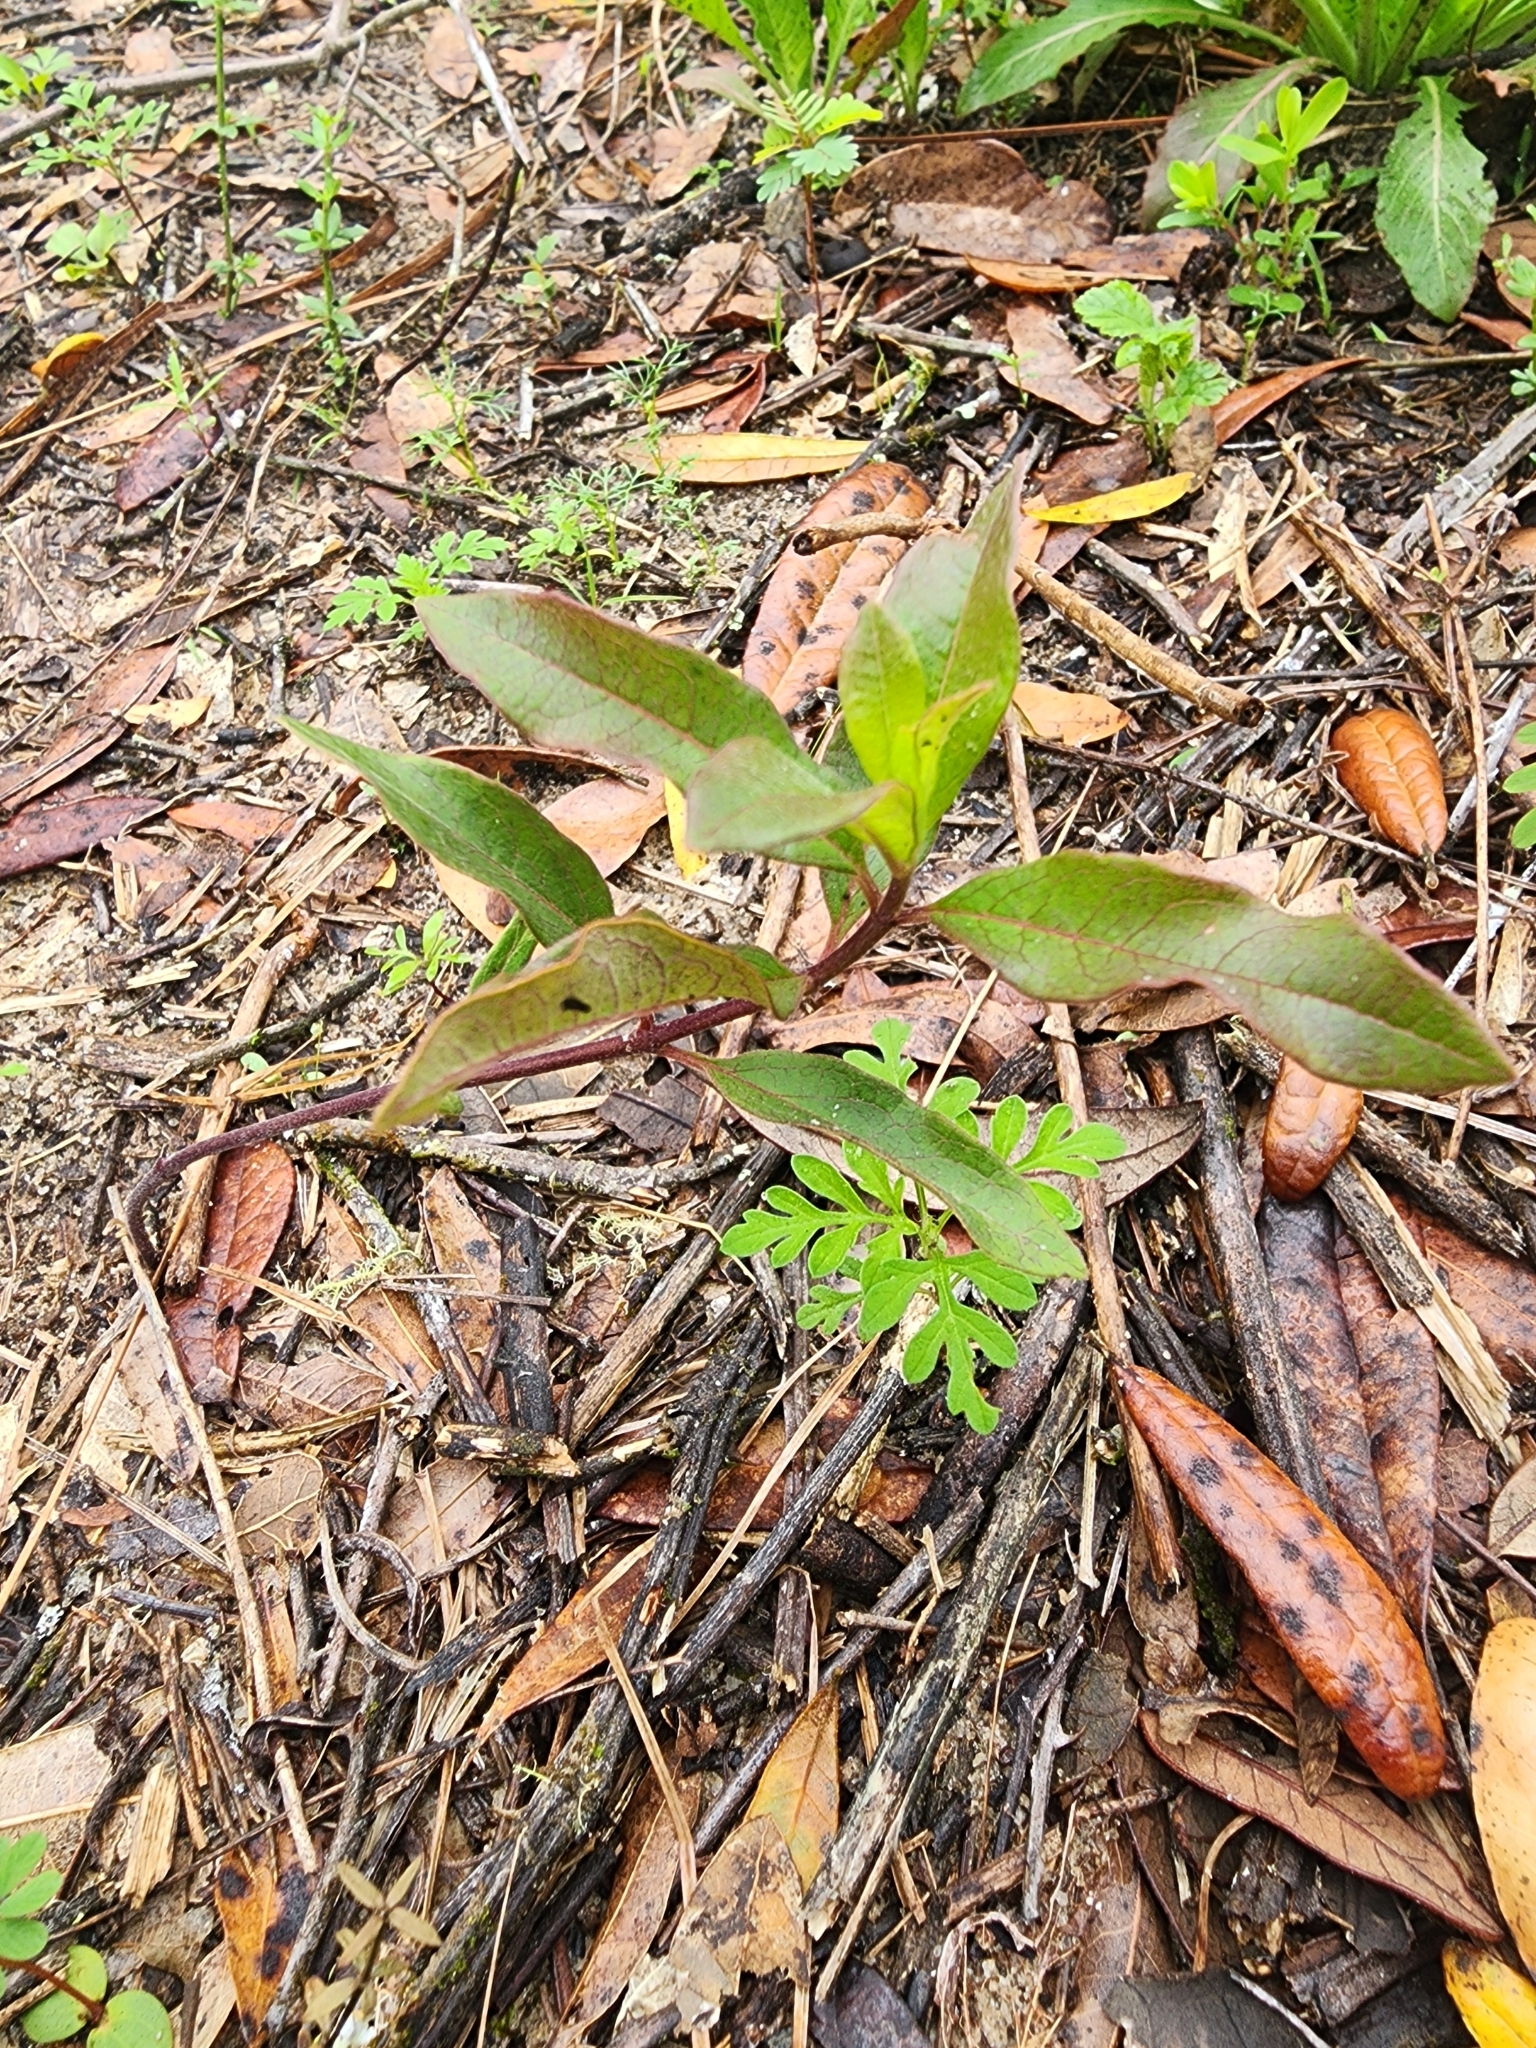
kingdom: Plantae
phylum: Tracheophyta
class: Magnoliopsida
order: Gentianales
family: Apocynaceae
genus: Asclepias
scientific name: Asclepias tomentosa
